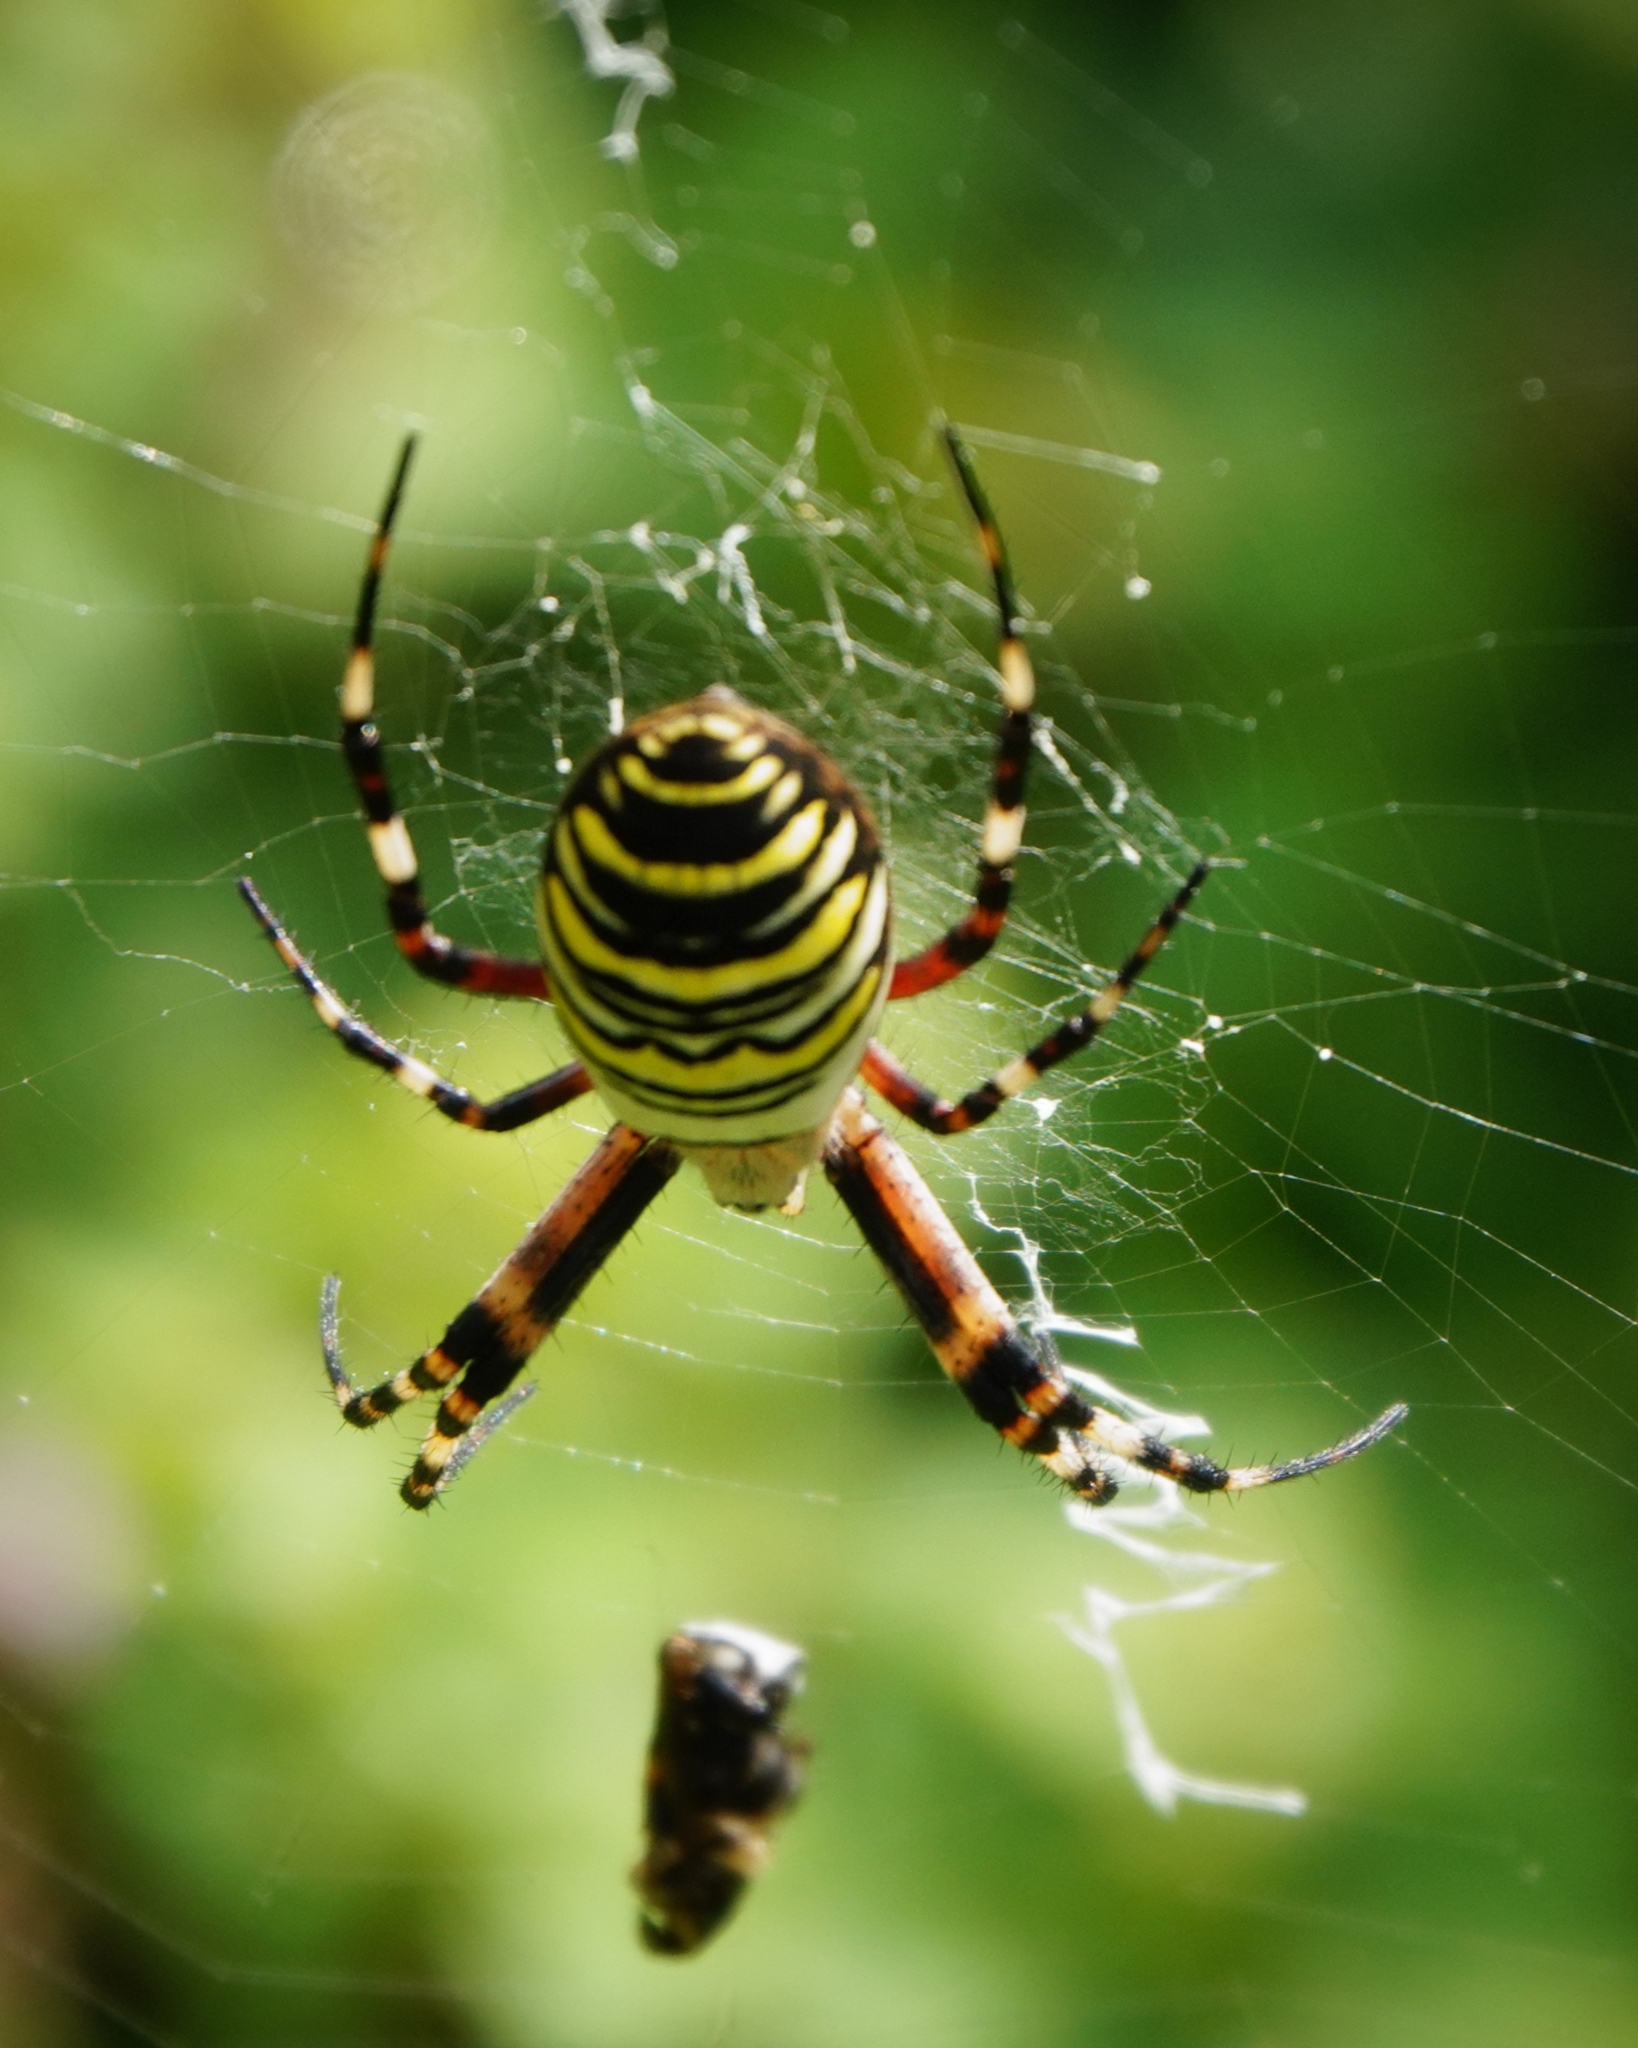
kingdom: Animalia
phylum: Arthropoda
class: Arachnida
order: Araneae
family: Araneidae
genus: Argiope
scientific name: Argiope bruennichi
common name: Wasp spider
